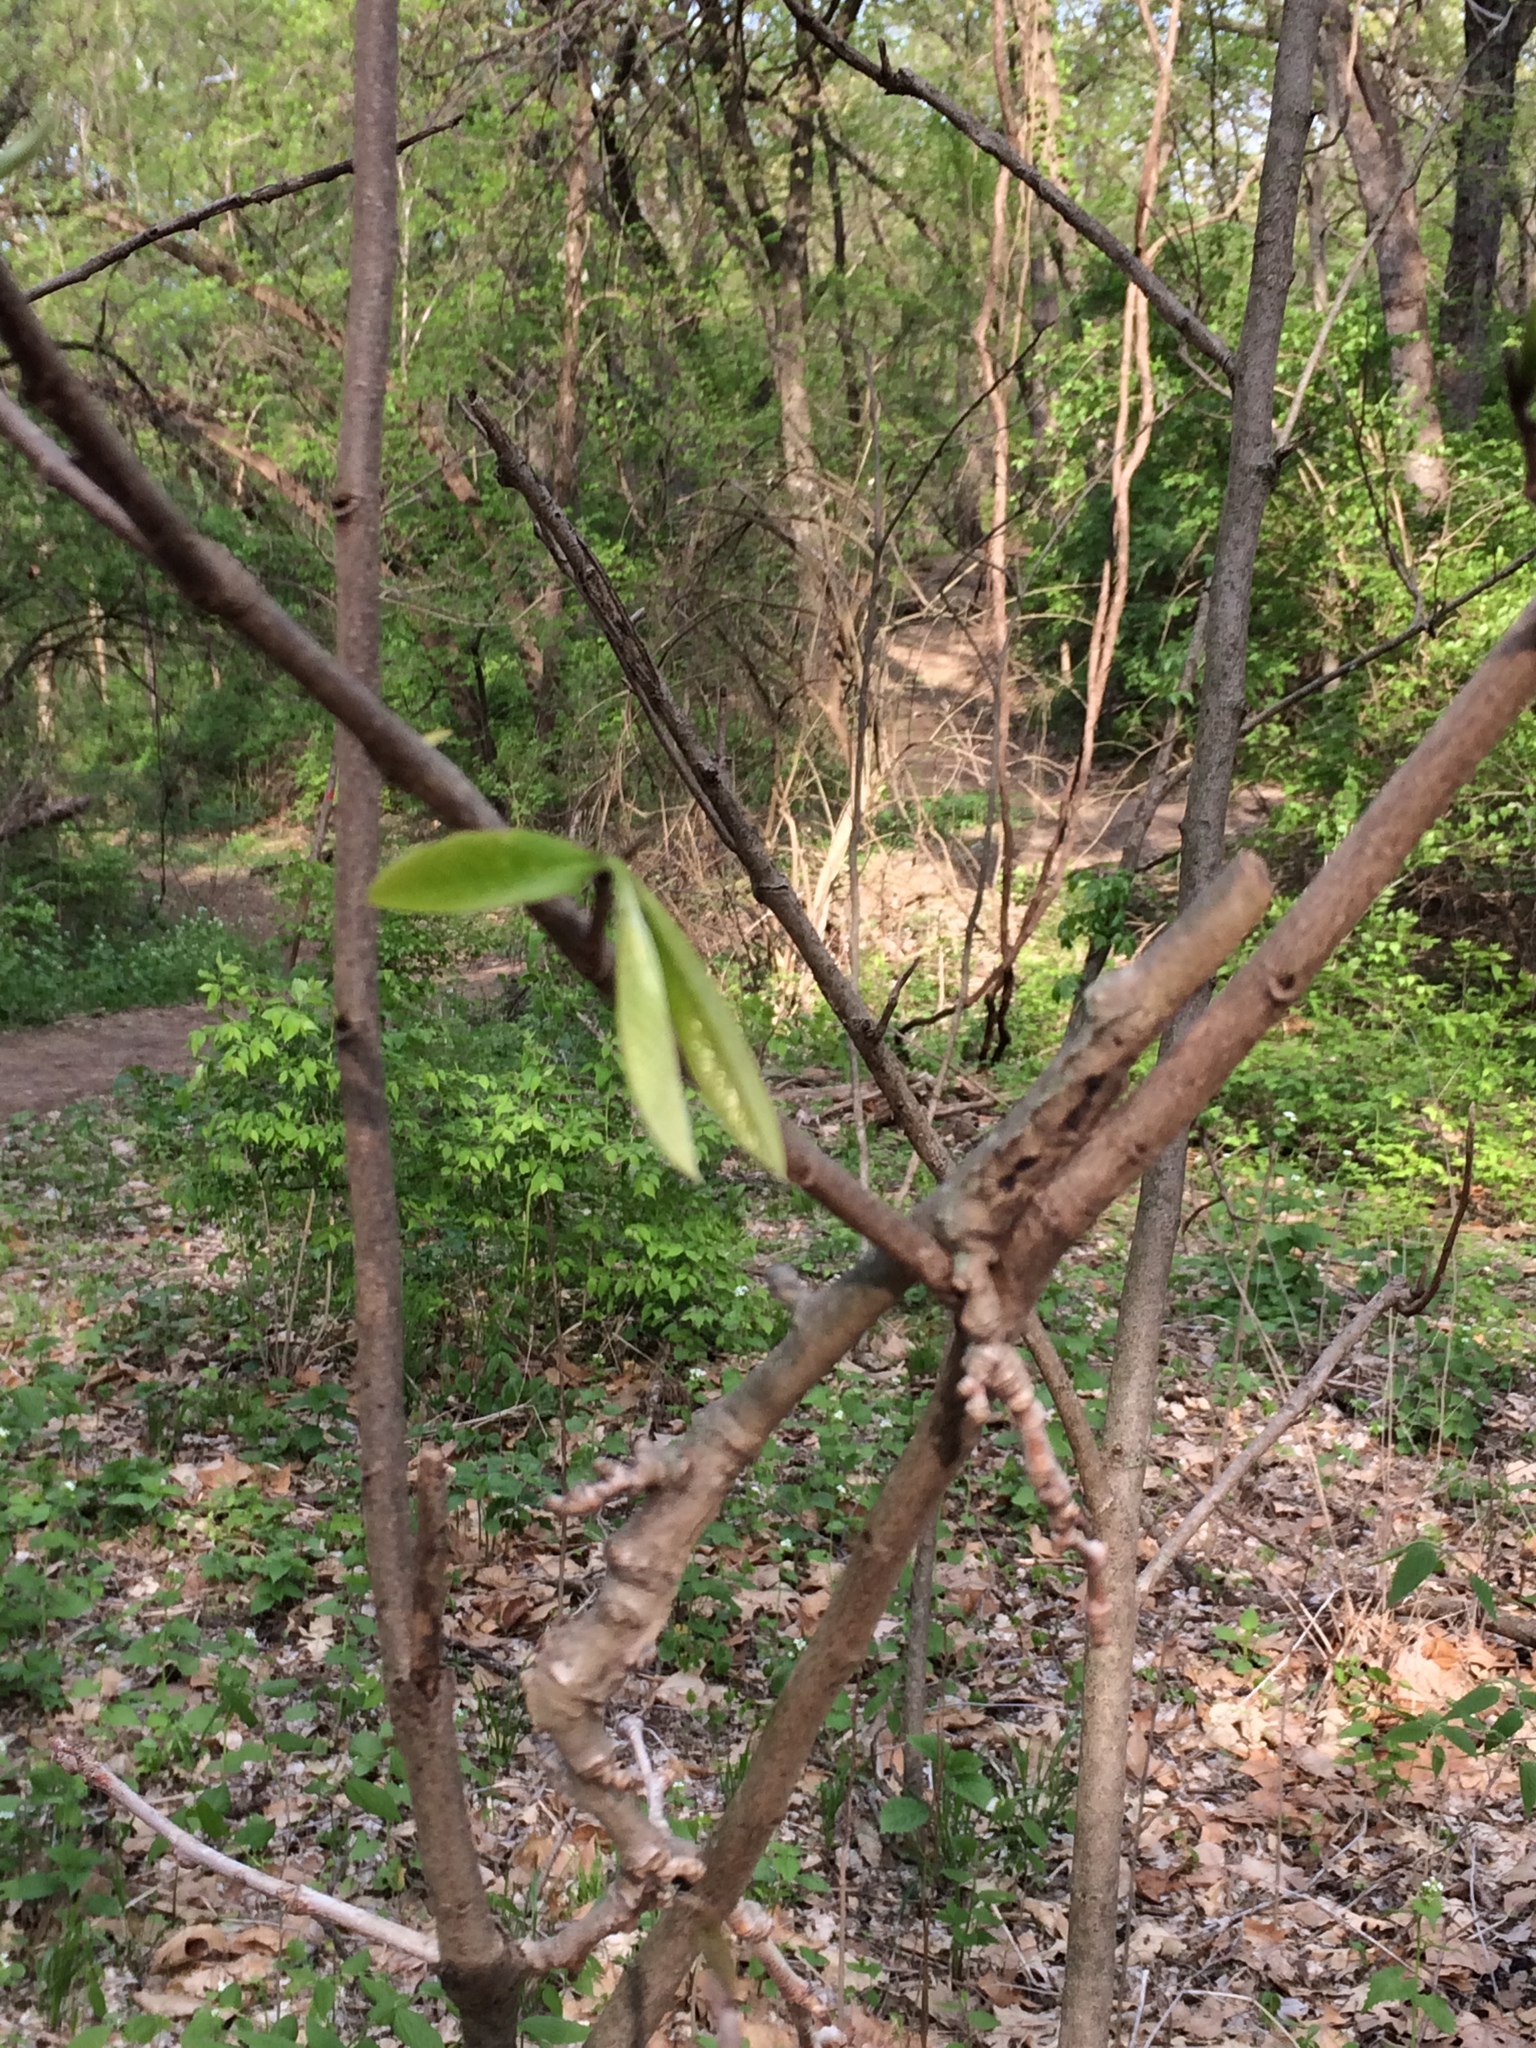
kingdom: Plantae
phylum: Tracheophyta
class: Magnoliopsida
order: Magnoliales
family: Annonaceae
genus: Asimina
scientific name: Asimina triloba
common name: Dog-banana
